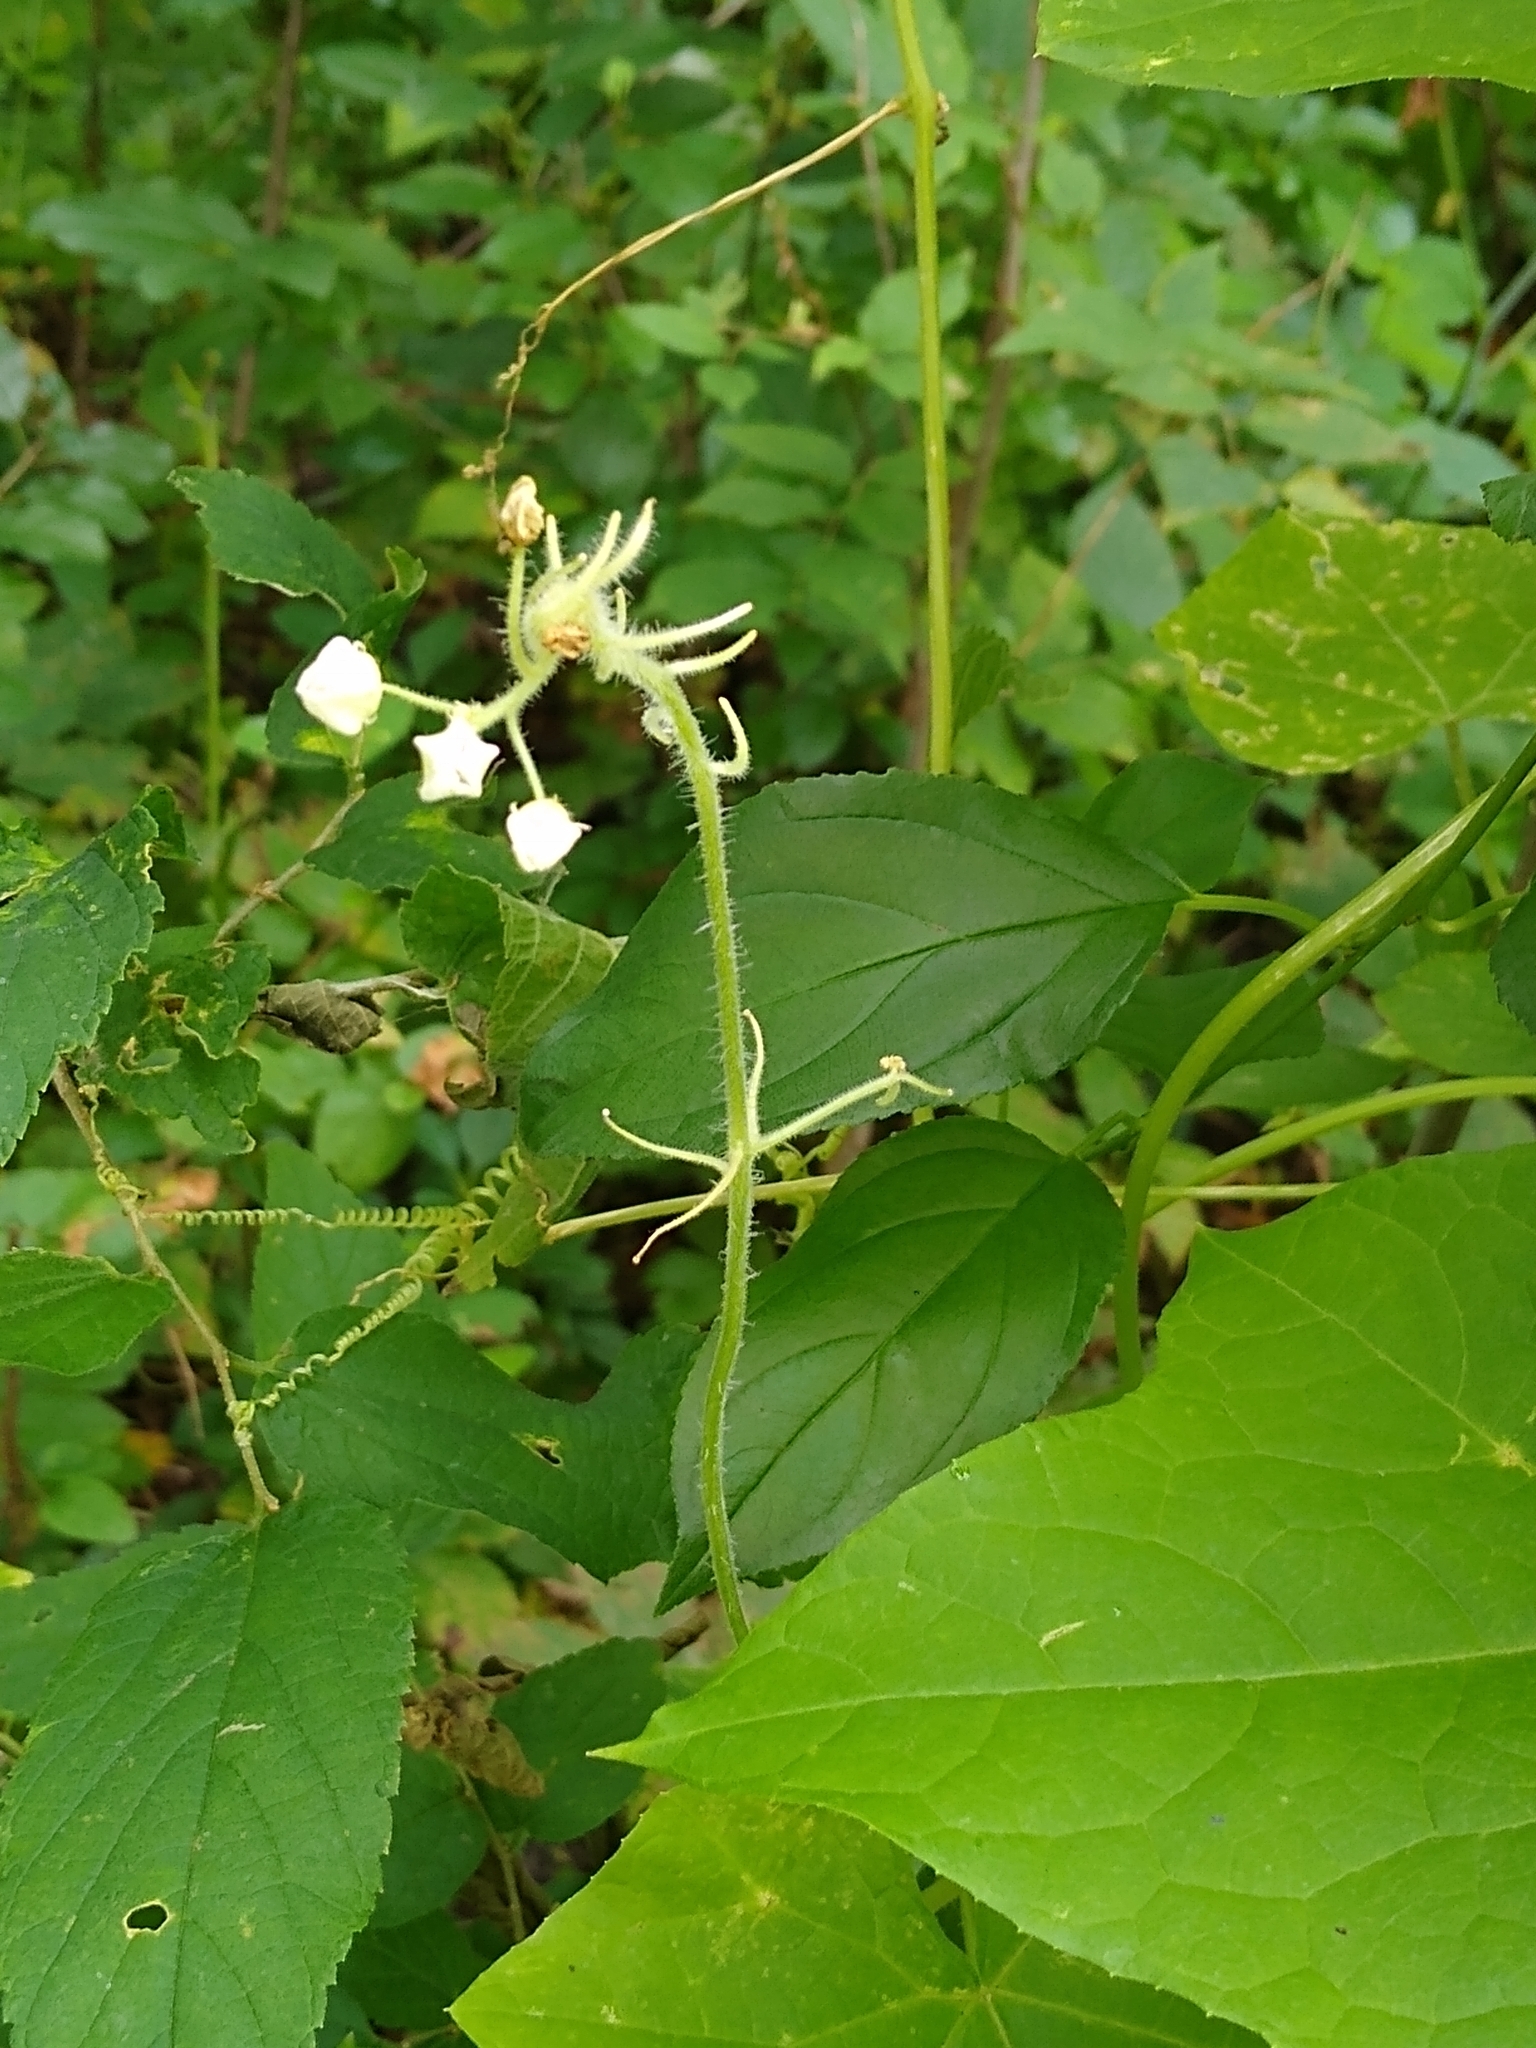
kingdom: Plantae
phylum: Tracheophyta
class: Magnoliopsida
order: Cucurbitales
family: Cucurbitaceae
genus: Sicyos
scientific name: Sicyos angulatus
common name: Angled burr cucumber
